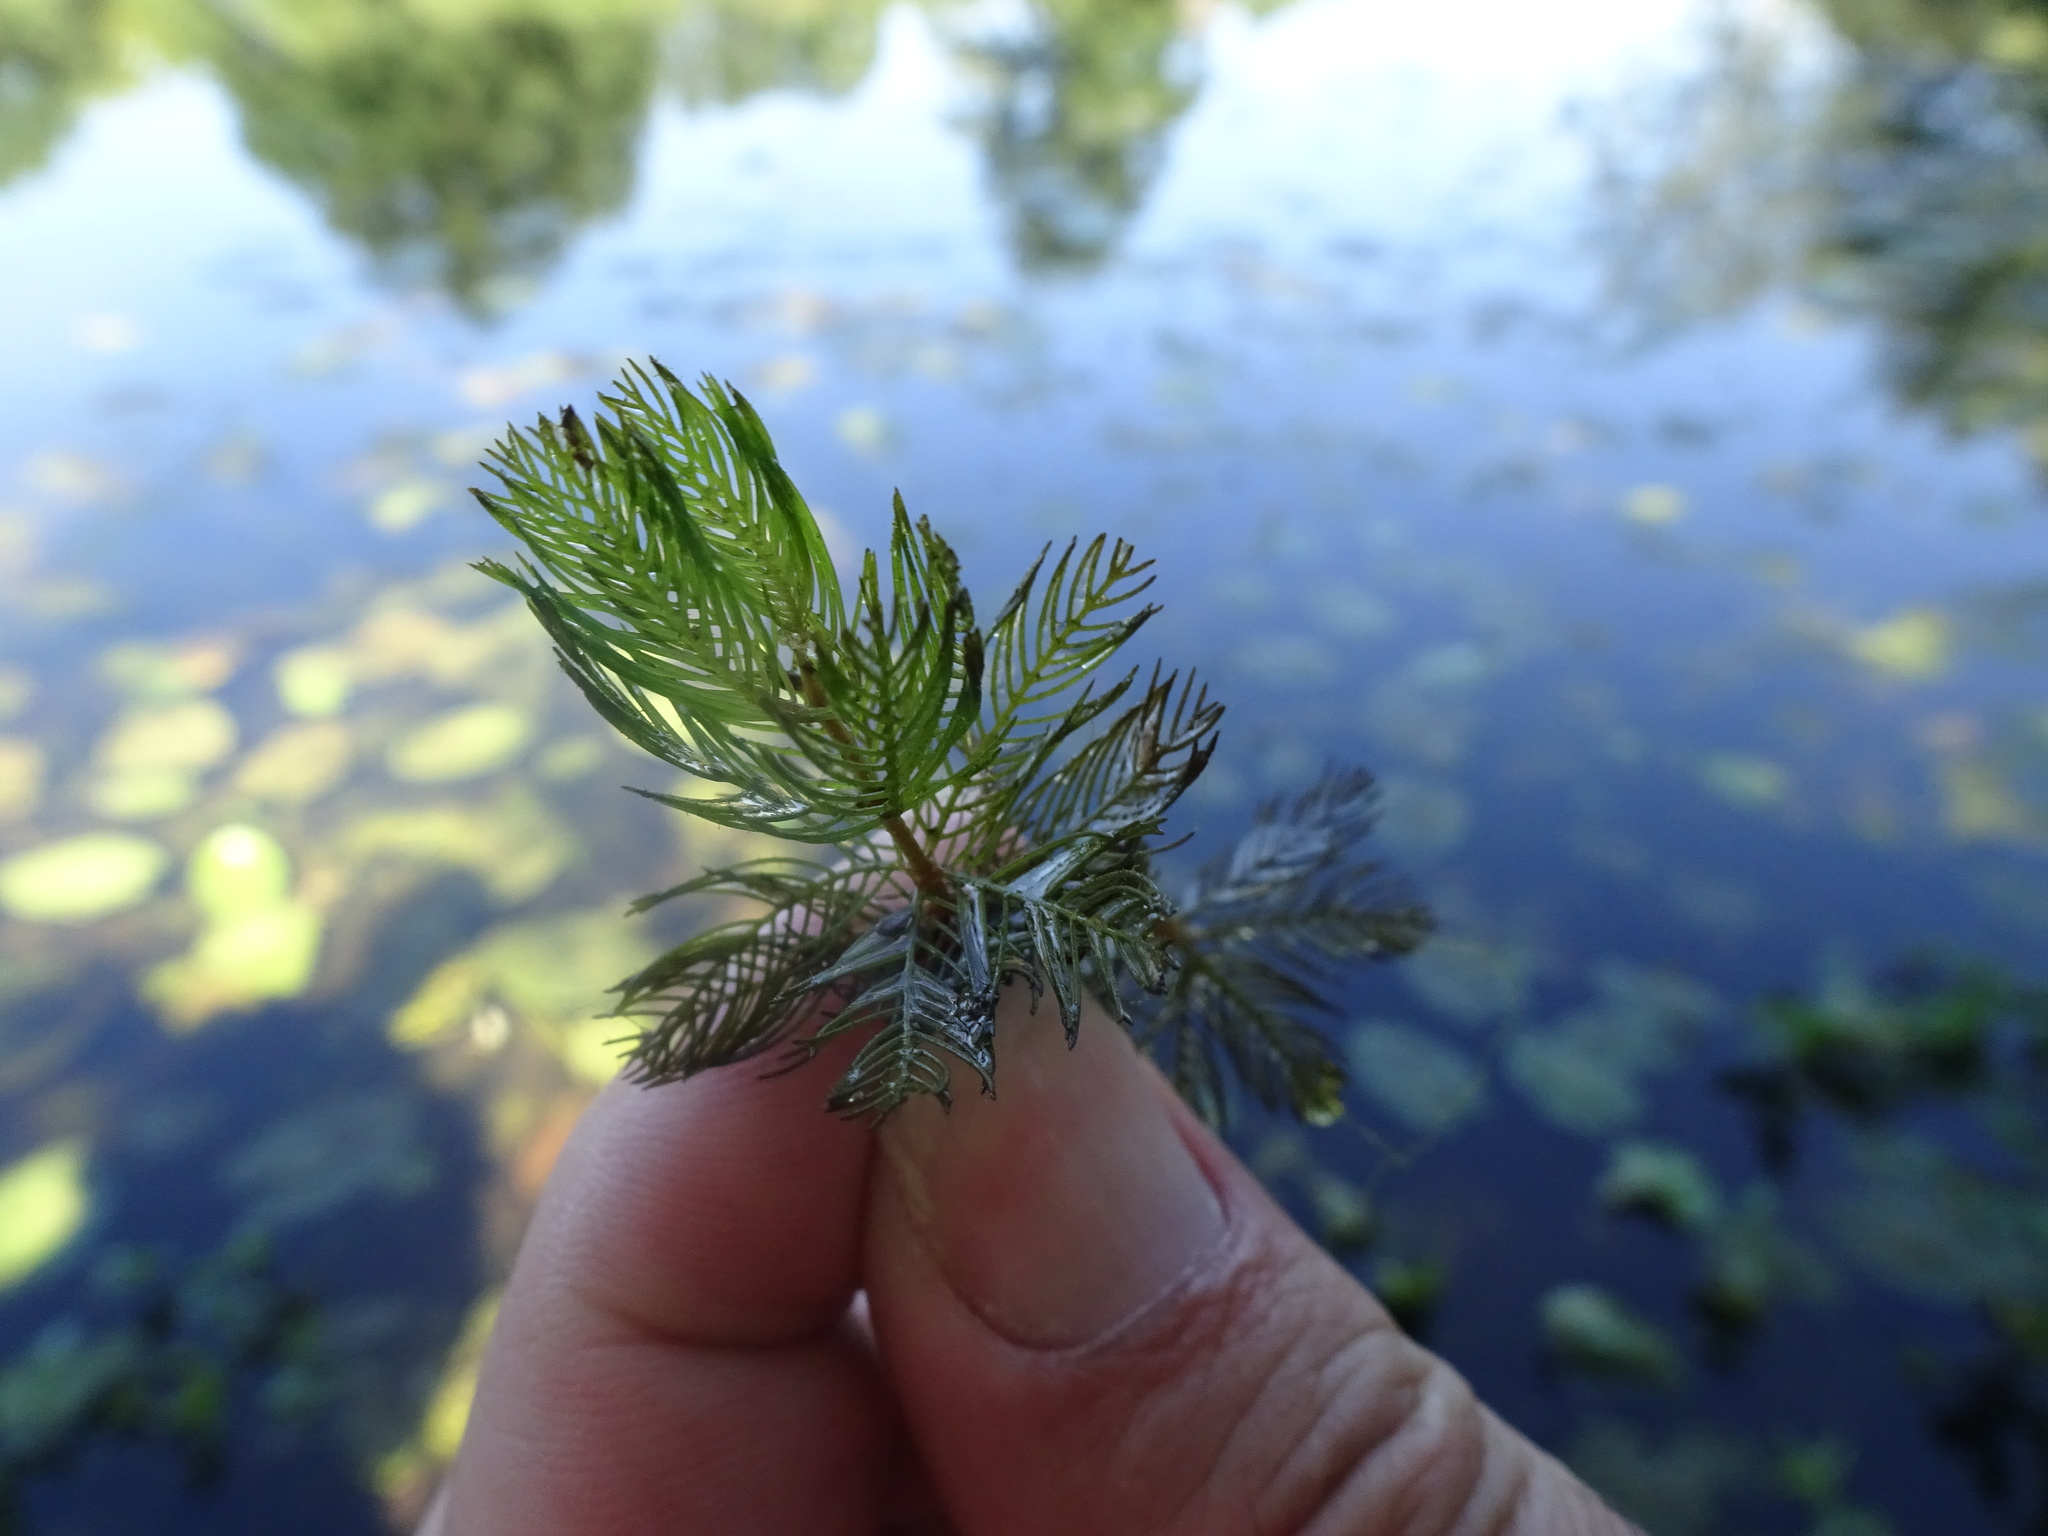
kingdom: Plantae
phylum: Tracheophyta
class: Magnoliopsida
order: Saxifragales
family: Haloragaceae
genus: Myriophyllum
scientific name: Myriophyllum spicatum
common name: Spiked water-milfoil
